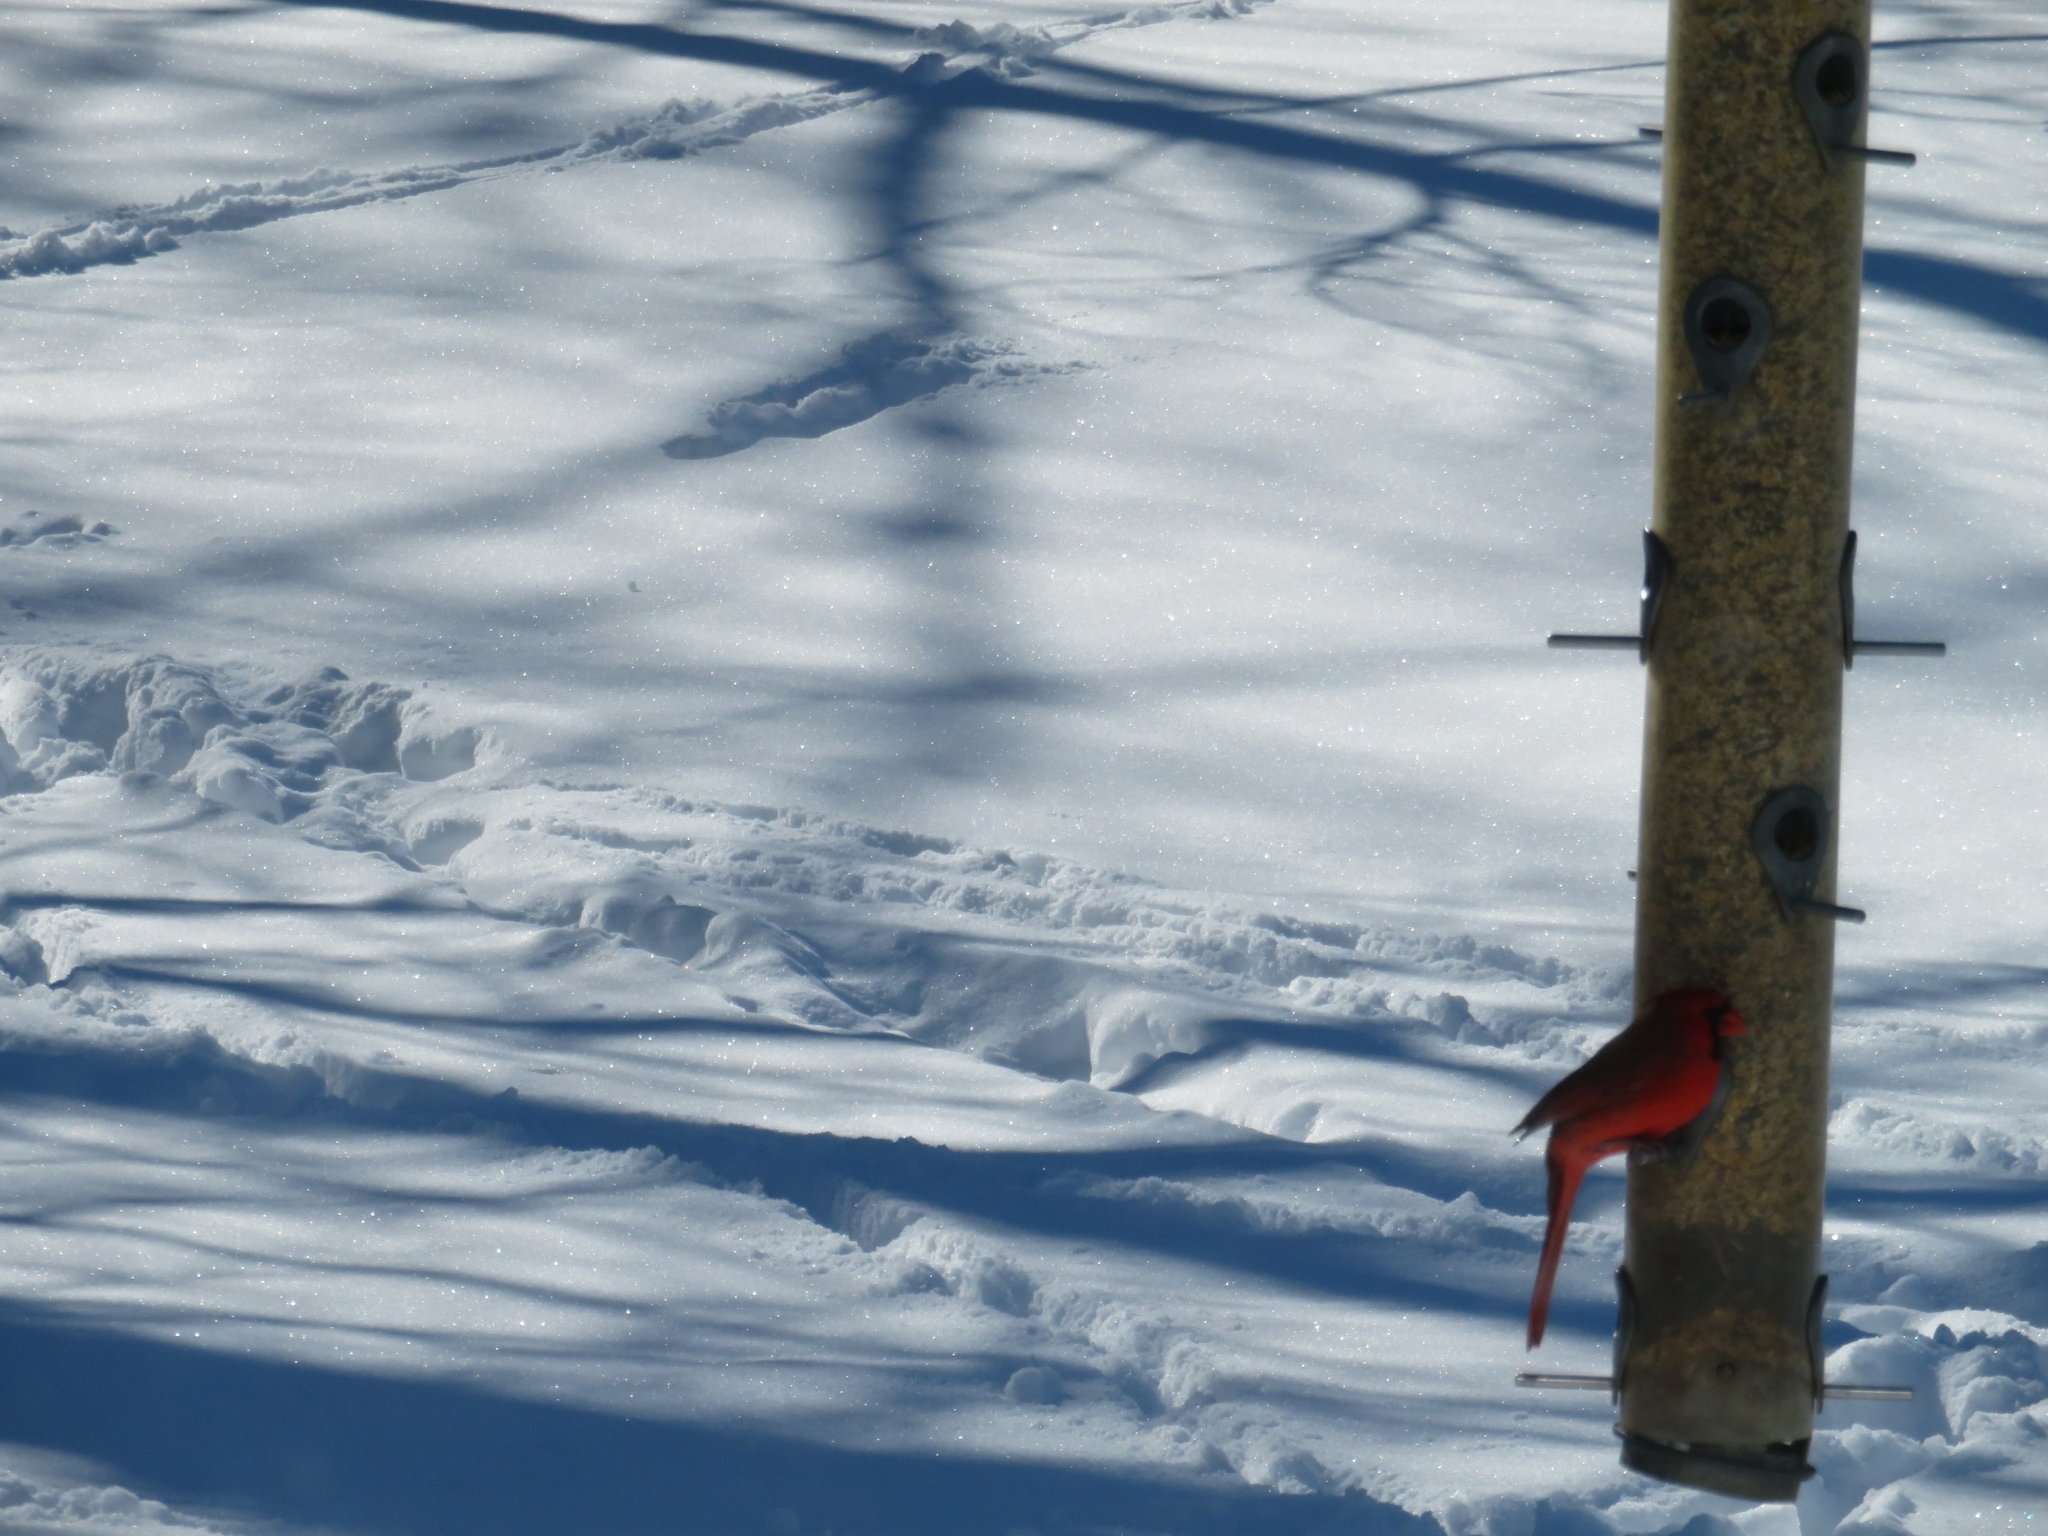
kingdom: Animalia
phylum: Chordata
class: Aves
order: Passeriformes
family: Cardinalidae
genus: Cardinalis
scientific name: Cardinalis cardinalis
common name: Northern cardinal
